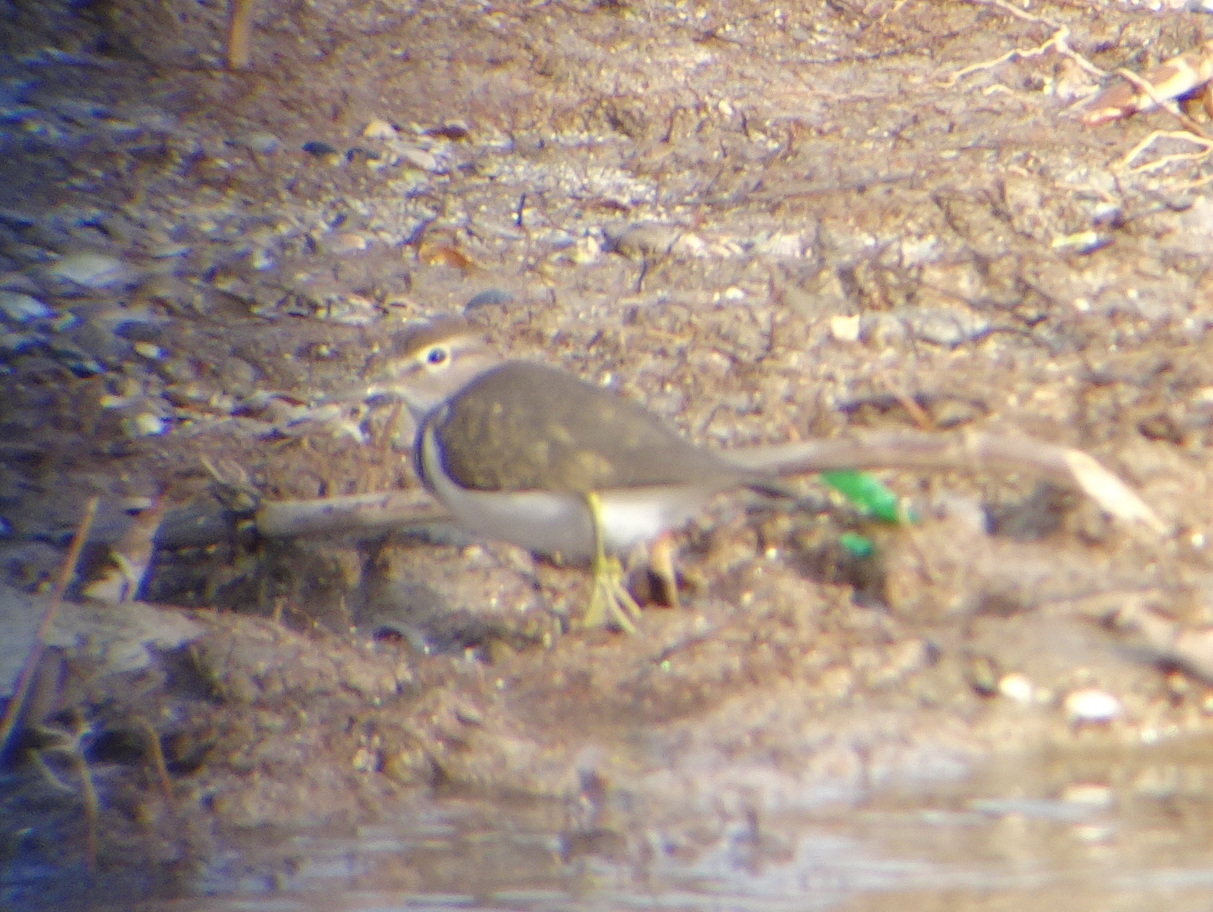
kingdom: Animalia
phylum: Chordata
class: Aves
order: Charadriiformes
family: Scolopacidae
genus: Actitis
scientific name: Actitis hypoleucos
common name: Common sandpiper
